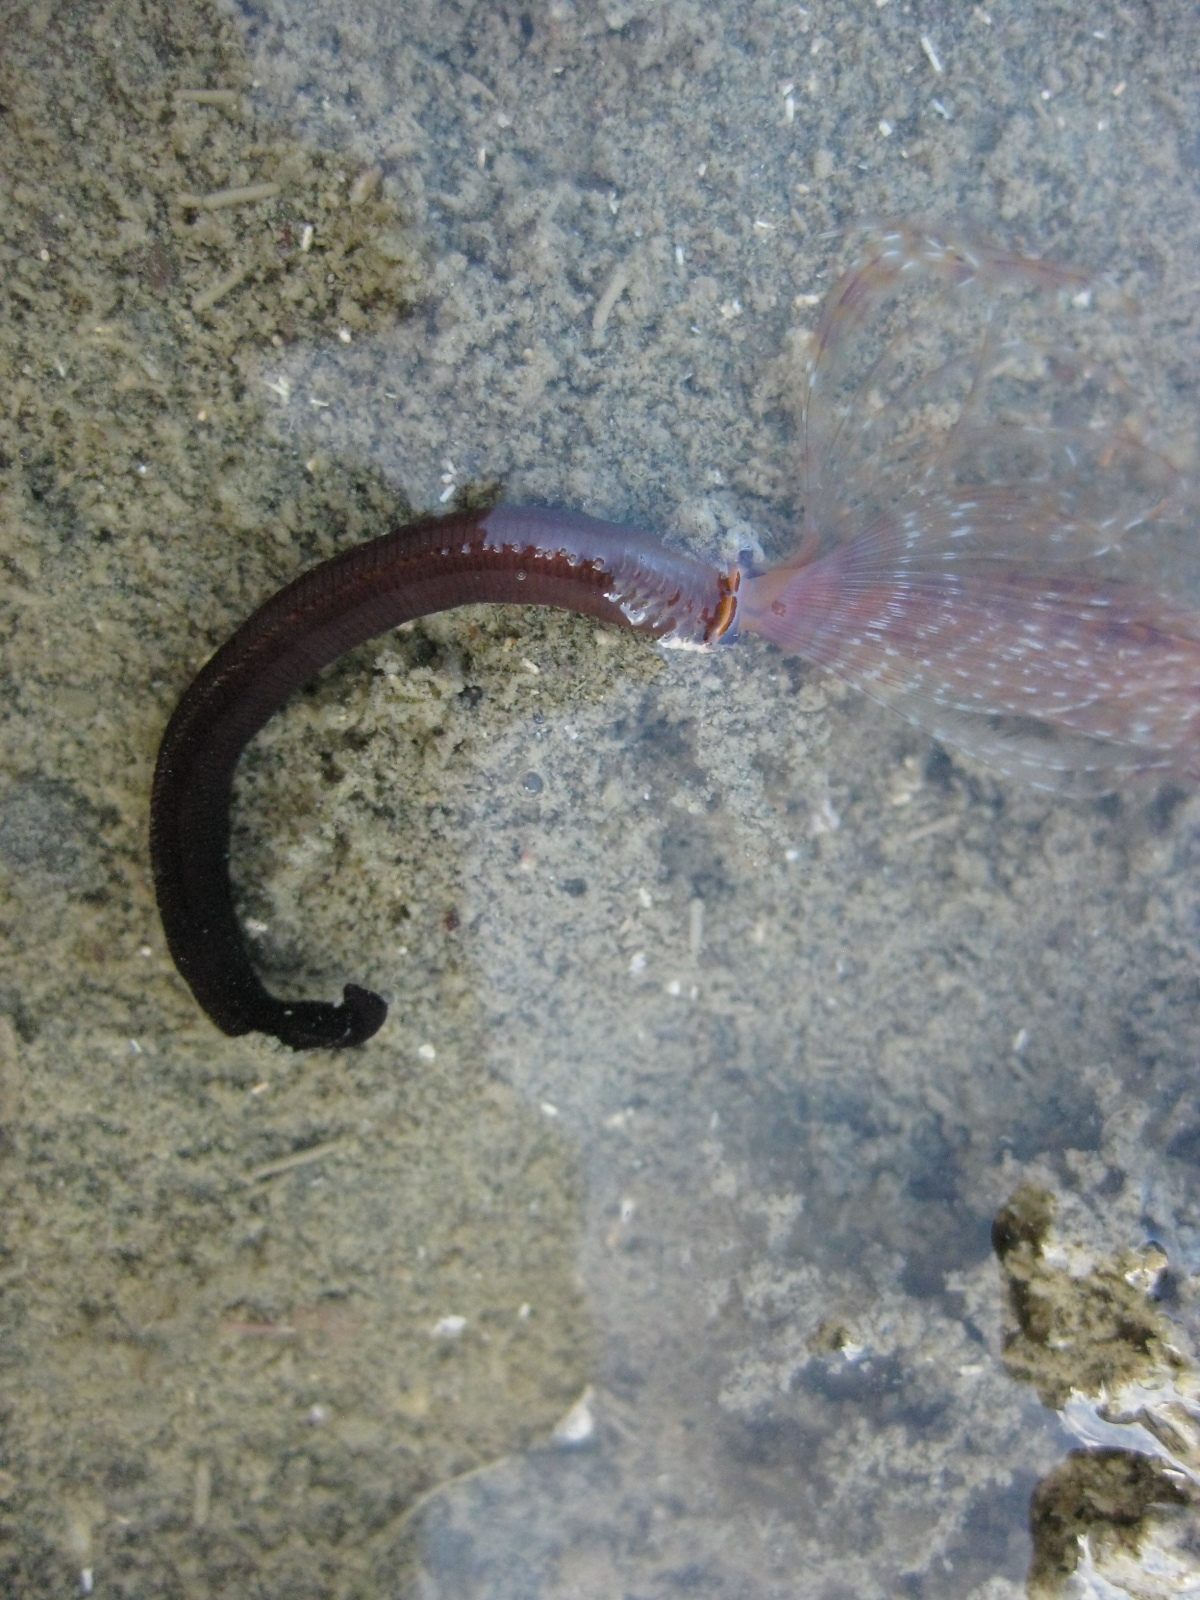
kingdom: Animalia
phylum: Annelida
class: Polychaeta
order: Sabellida
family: Sabellidae
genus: Sabella
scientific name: Sabella spallanzanii
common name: Feather duster worm
